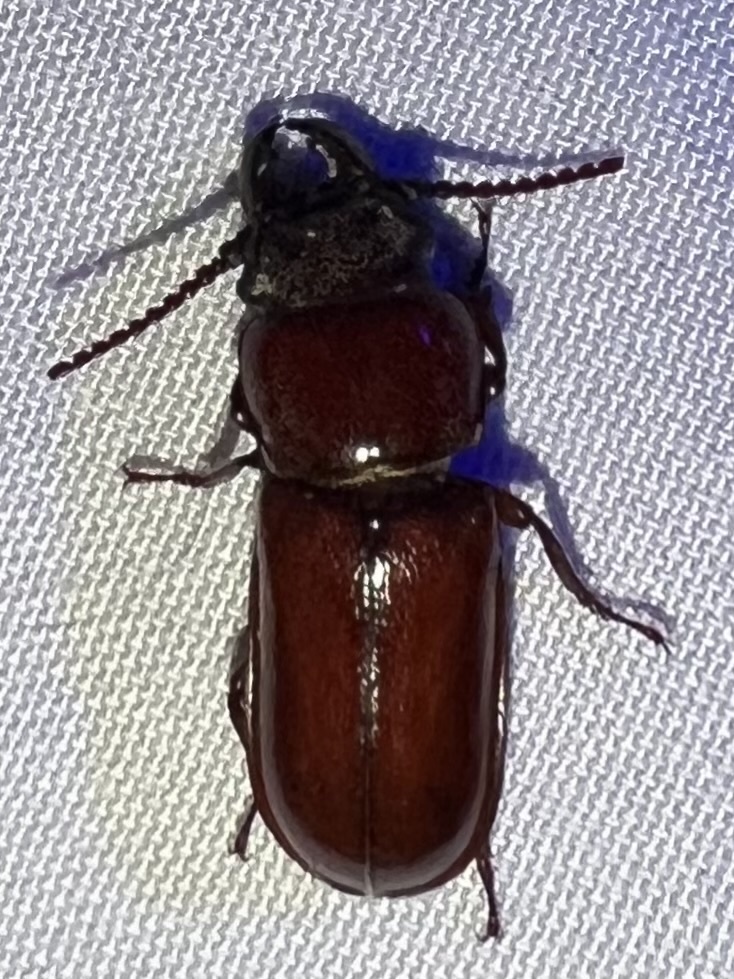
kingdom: Animalia
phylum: Arthropoda
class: Insecta
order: Coleoptera
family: Cerambycidae
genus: Neandra
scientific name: Neandra brunnea
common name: Pole borer
